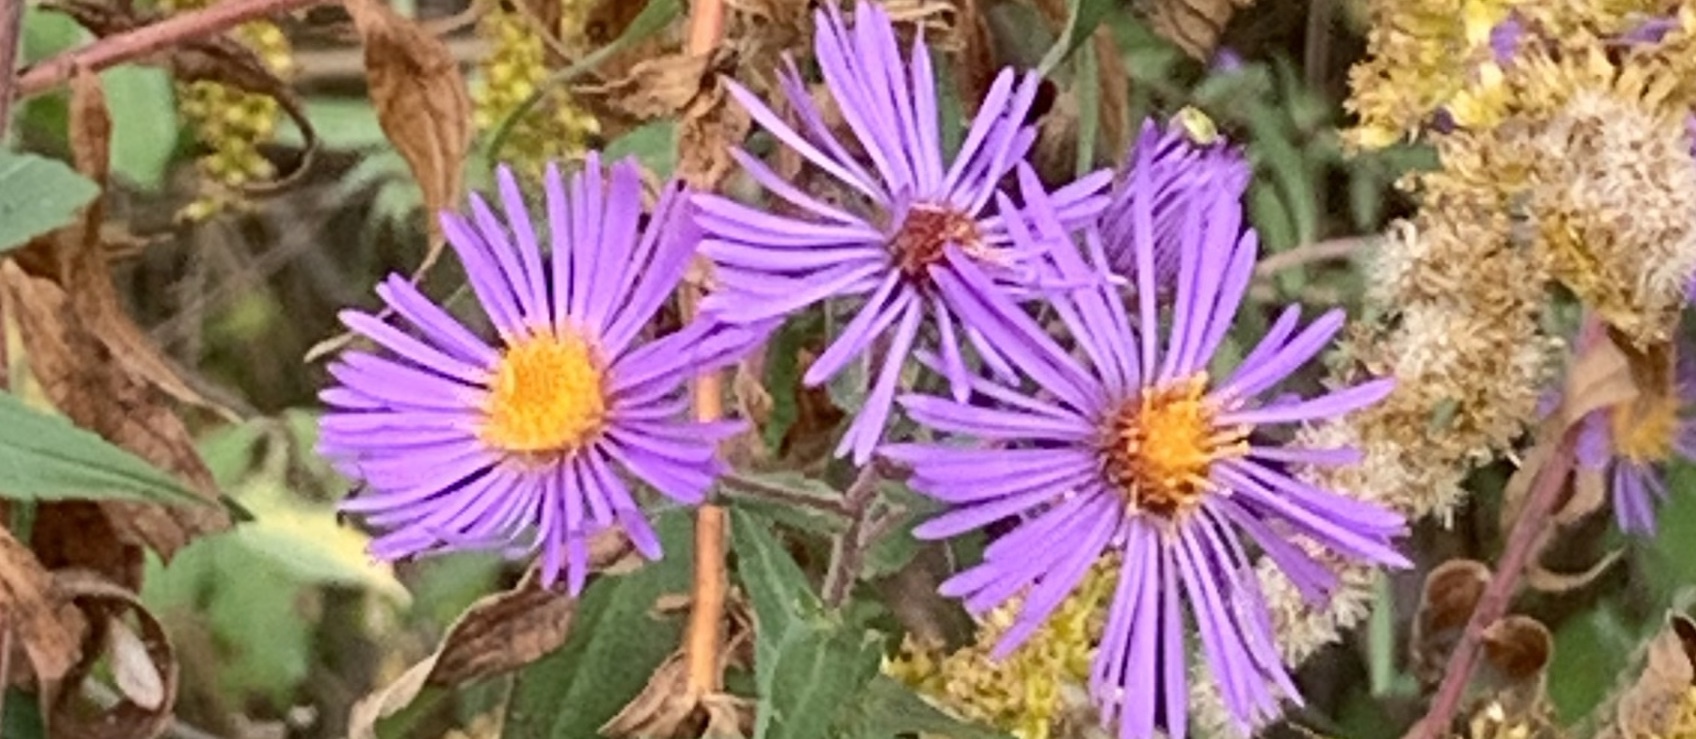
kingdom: Plantae
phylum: Tracheophyta
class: Magnoliopsida
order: Asterales
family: Asteraceae
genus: Symphyotrichum
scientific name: Symphyotrichum novae-angliae
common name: Michaelmas daisy
